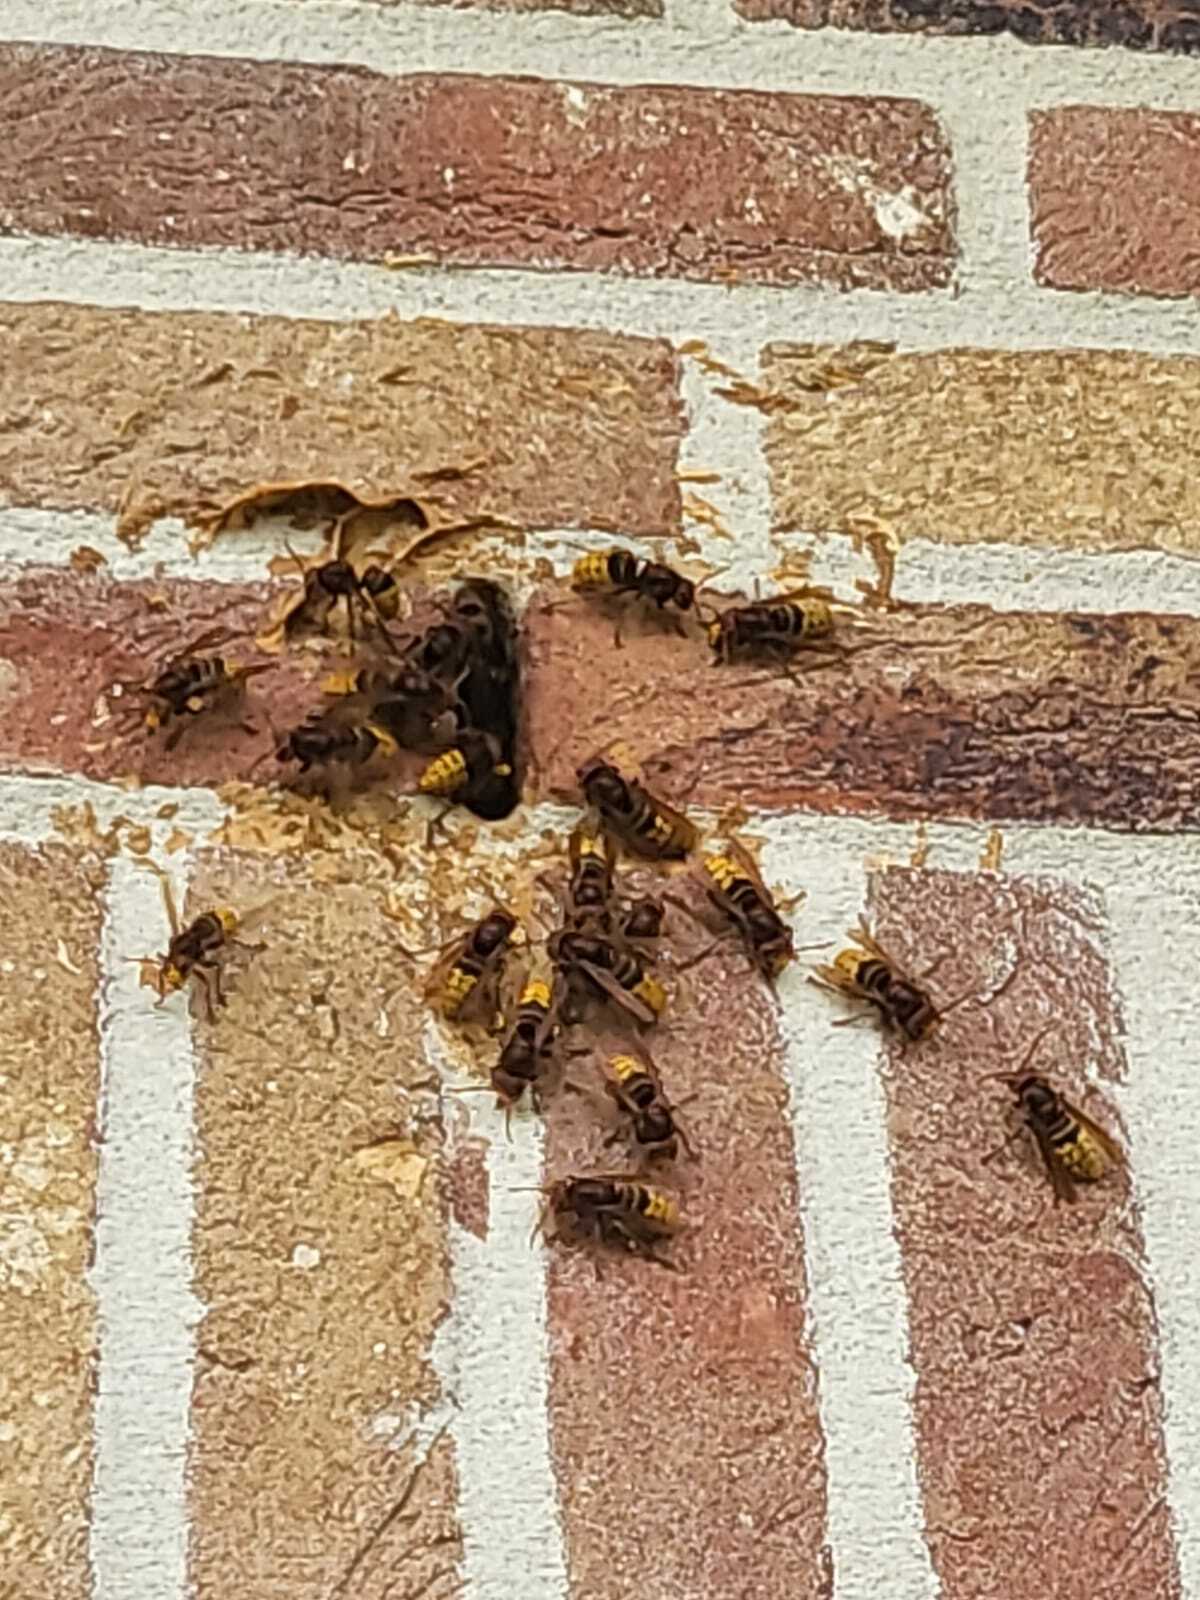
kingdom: Animalia
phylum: Arthropoda
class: Insecta
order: Hymenoptera
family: Vespidae
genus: Vespa
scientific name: Vespa crabro
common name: Hornet
